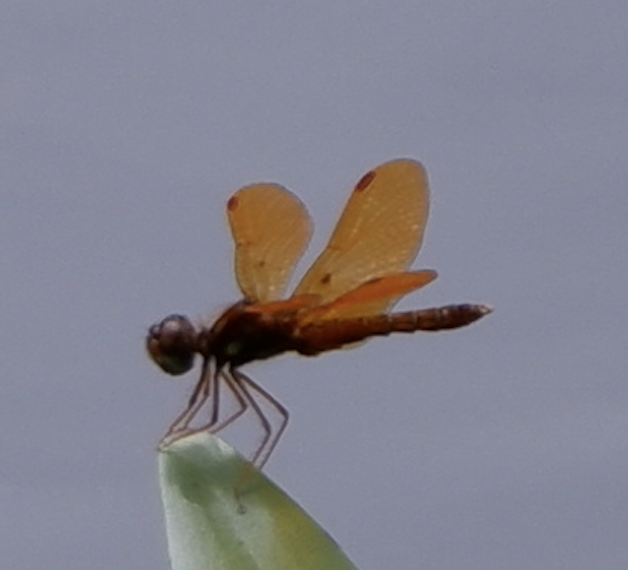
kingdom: Animalia
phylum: Arthropoda
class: Insecta
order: Odonata
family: Libellulidae
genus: Perithemis
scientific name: Perithemis tenera
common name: Eastern amberwing
